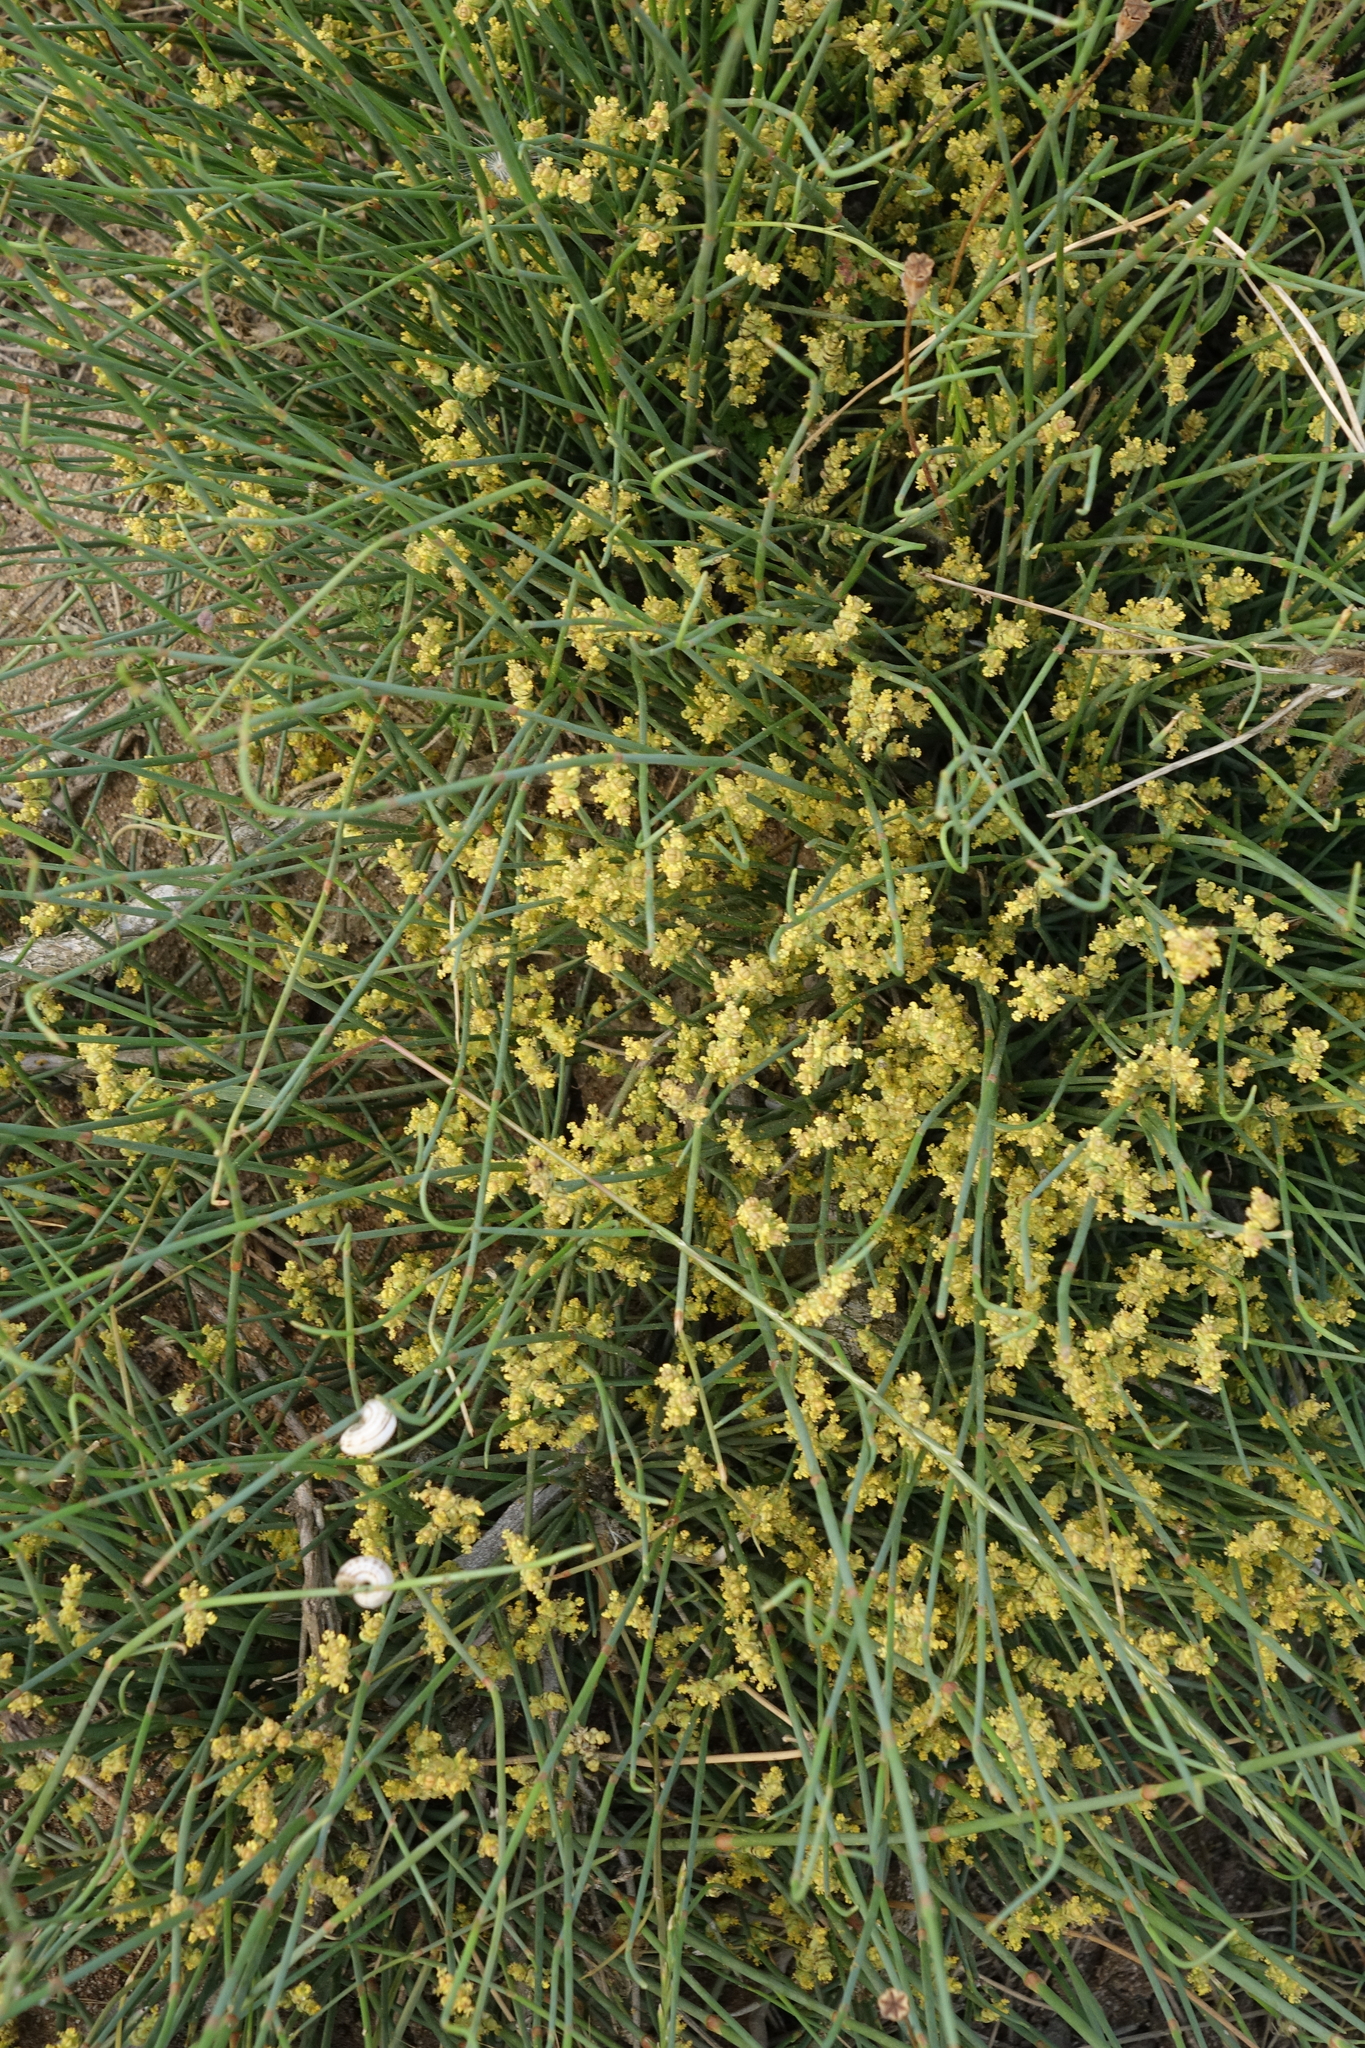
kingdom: Plantae
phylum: Tracheophyta
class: Gnetopsida
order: Ephedrales
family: Ephedraceae
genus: Ephedra
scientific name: Ephedra distachya
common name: Sea grape
